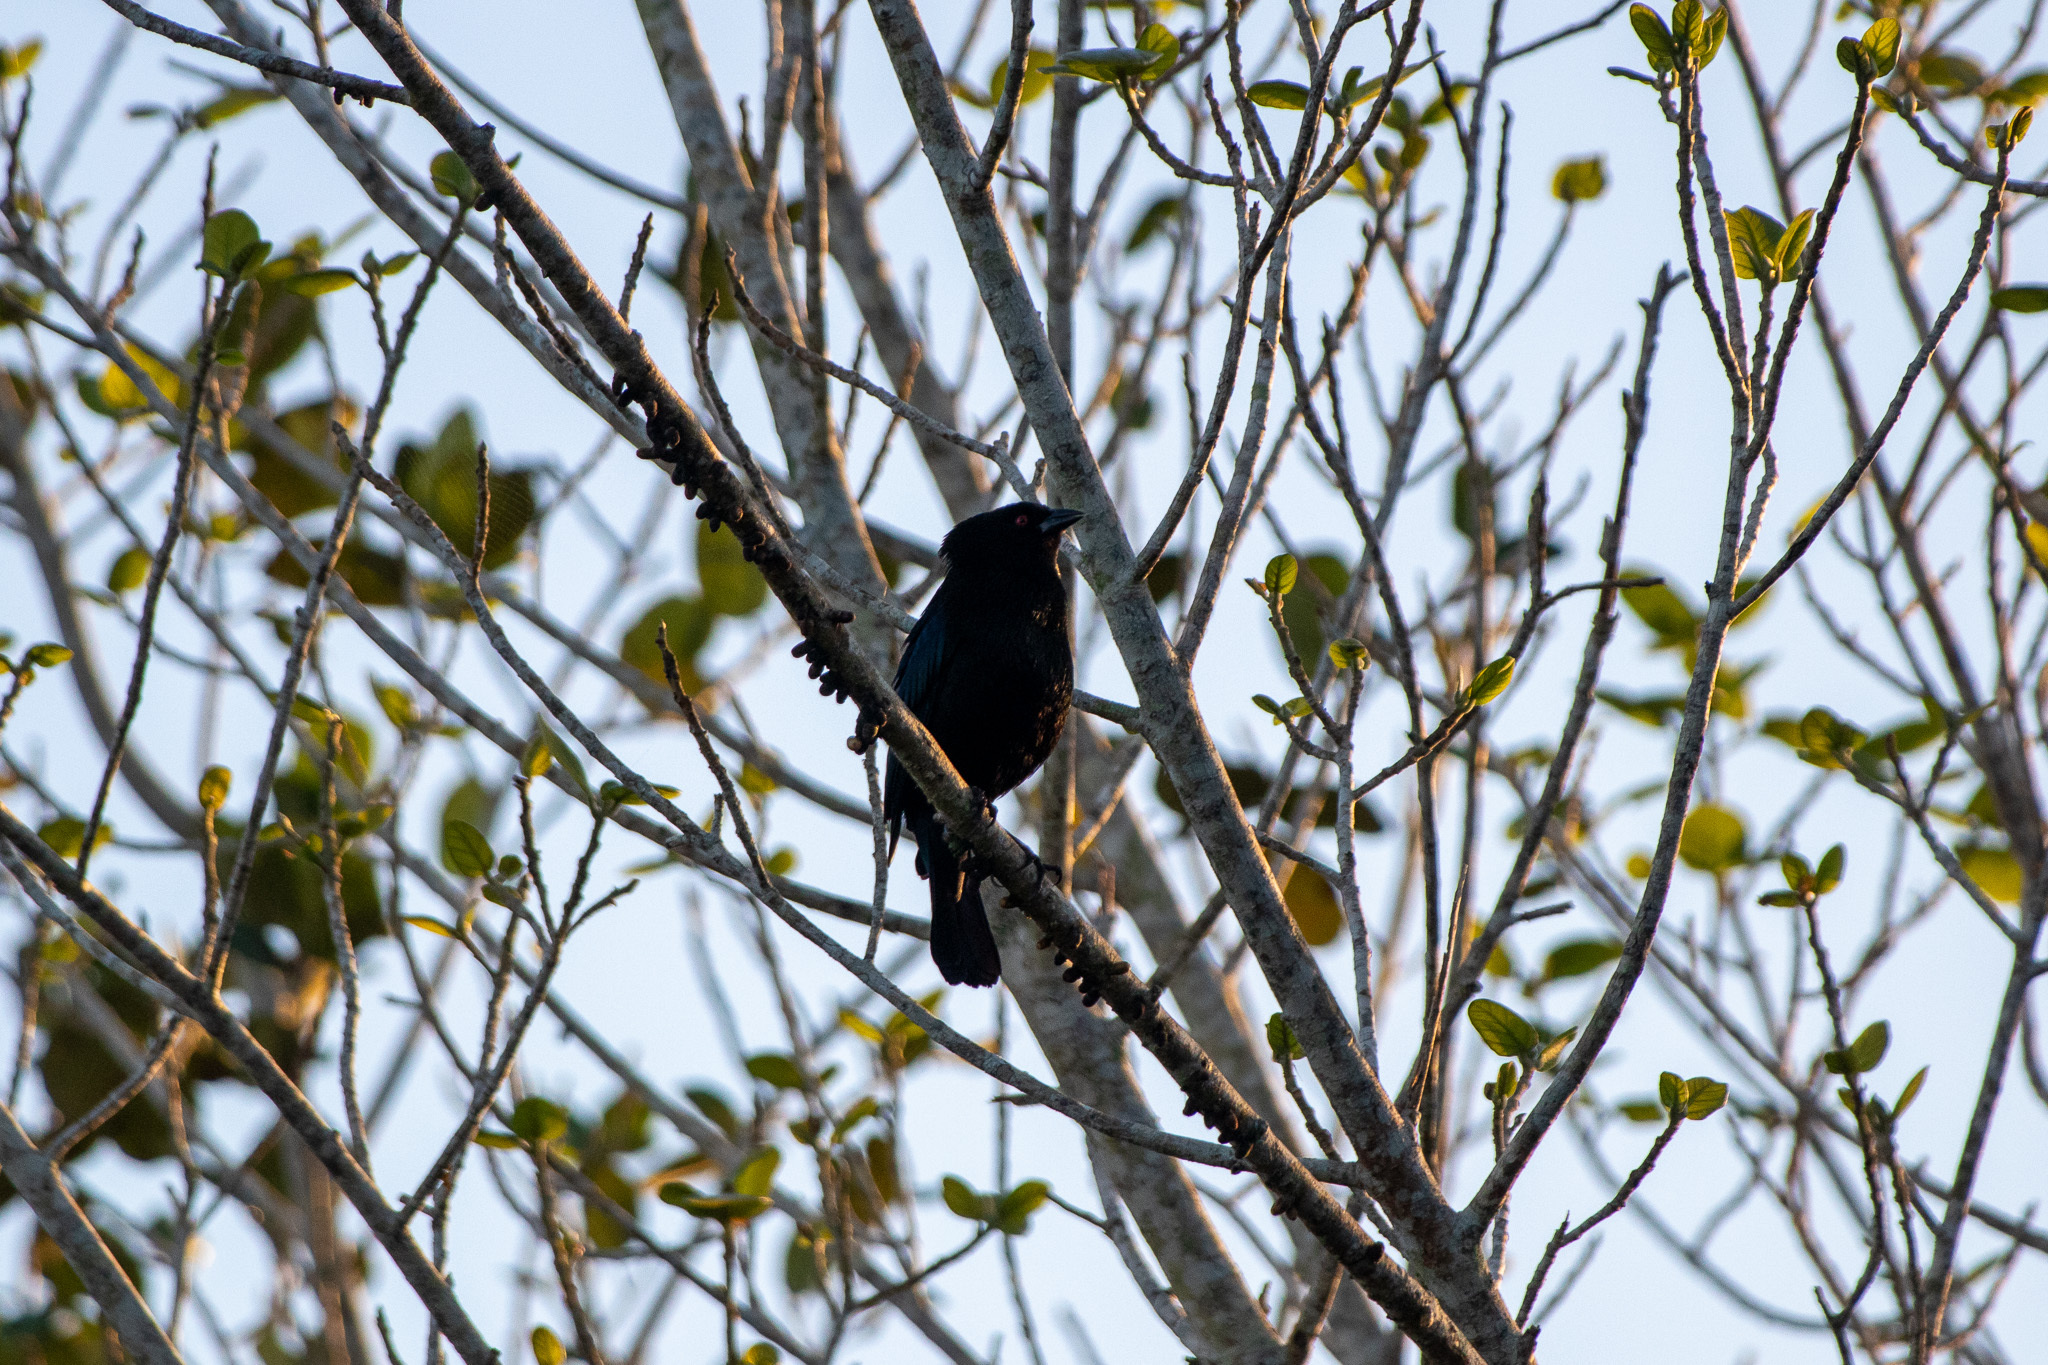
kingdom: Animalia
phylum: Chordata
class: Aves
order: Passeriformes
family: Icteridae
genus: Molothrus
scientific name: Molothrus aeneus
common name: Bronzed cowbird
